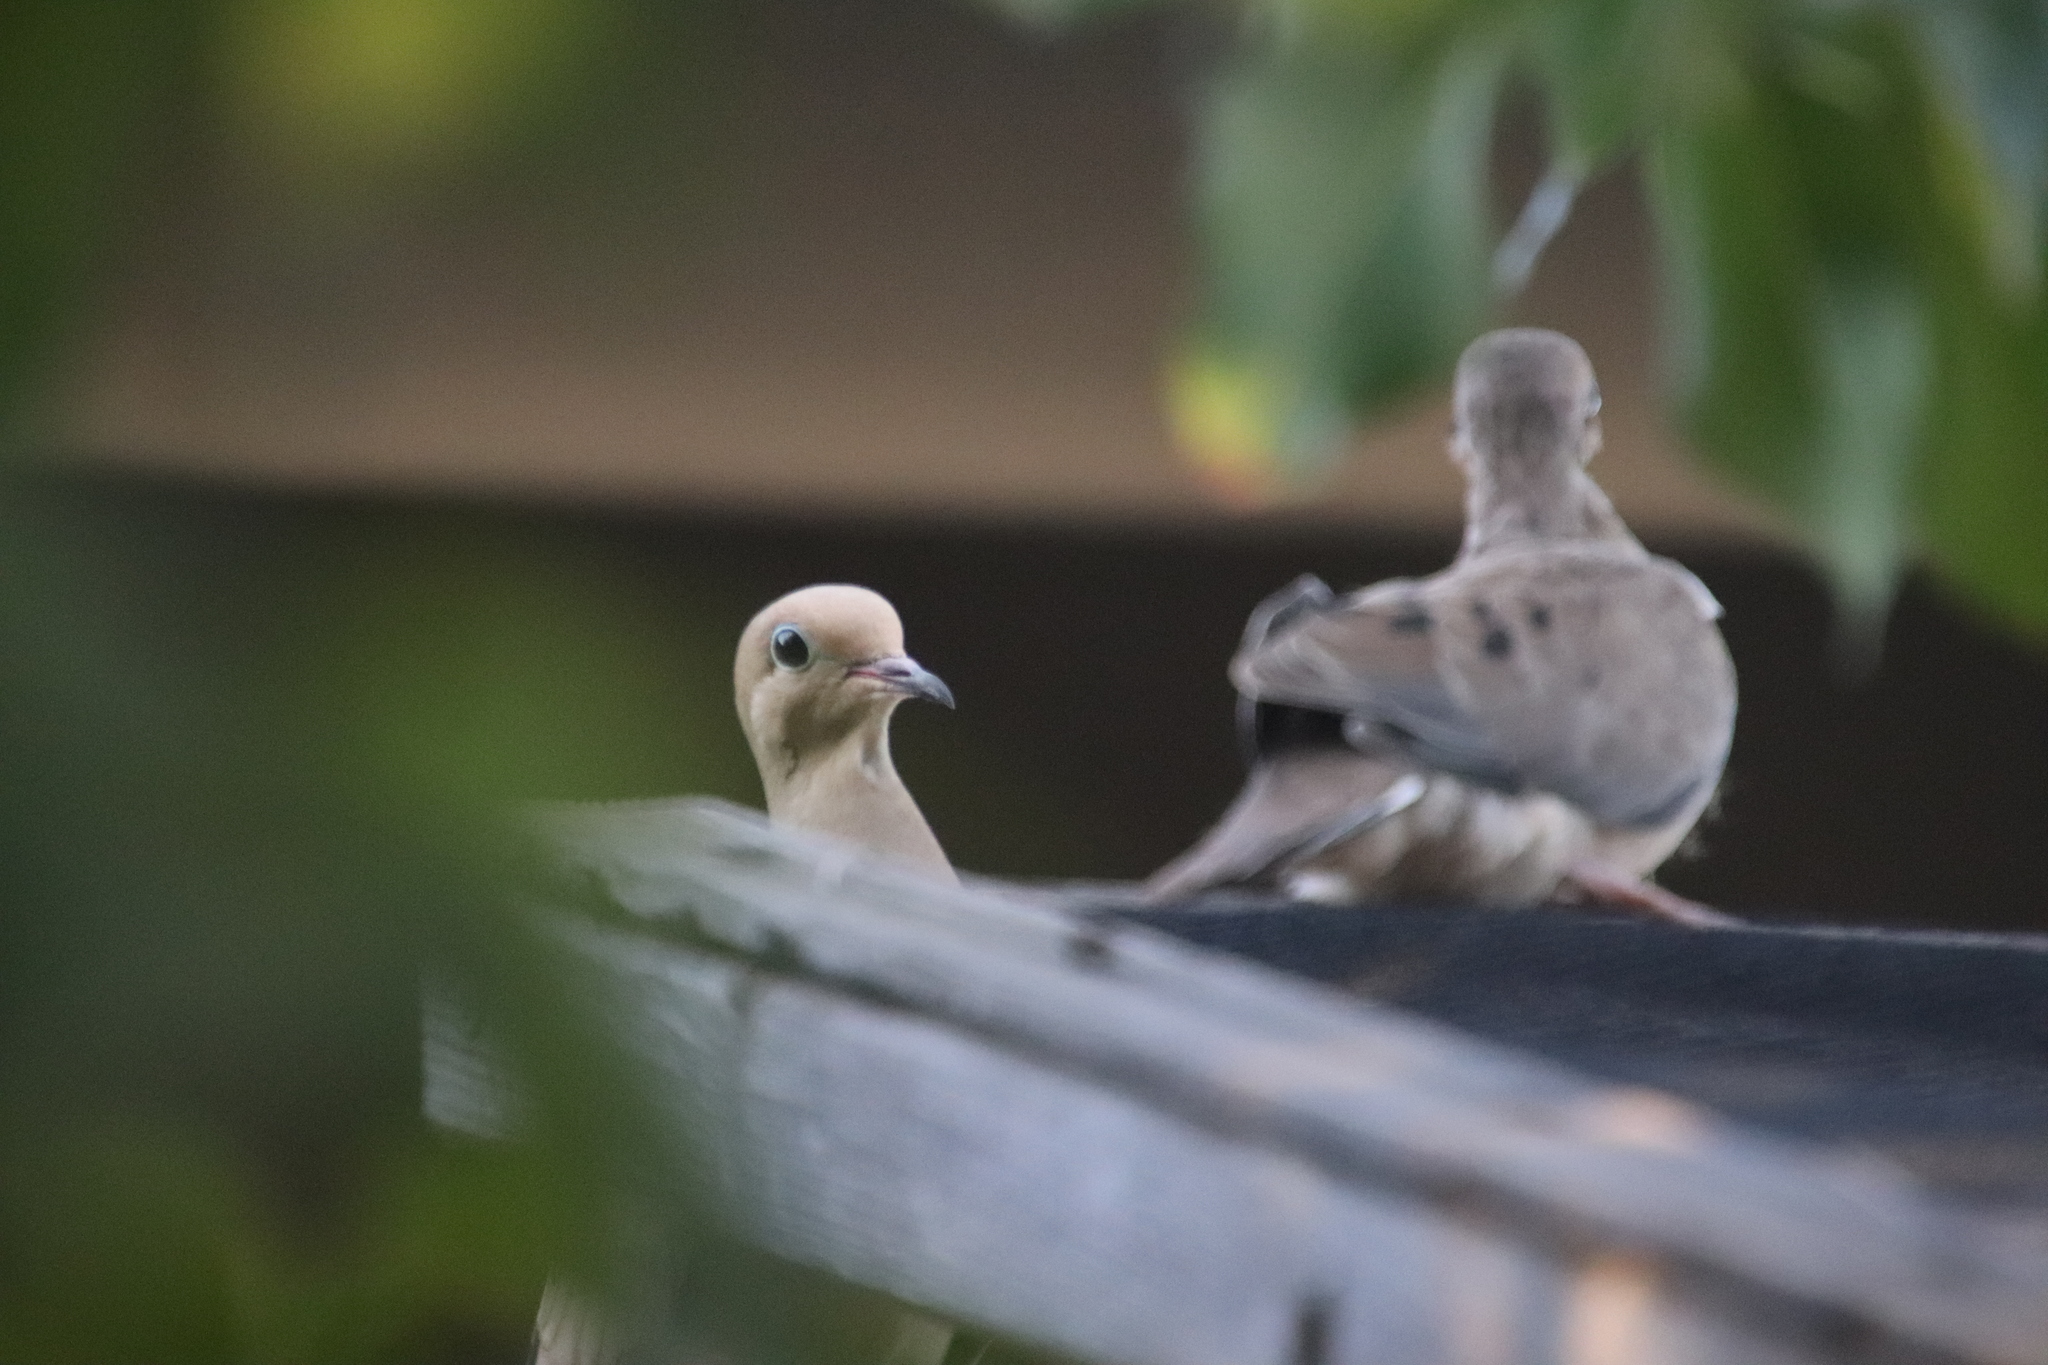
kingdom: Animalia
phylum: Chordata
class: Aves
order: Columbiformes
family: Columbidae
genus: Zenaida
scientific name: Zenaida macroura
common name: Mourning dove
